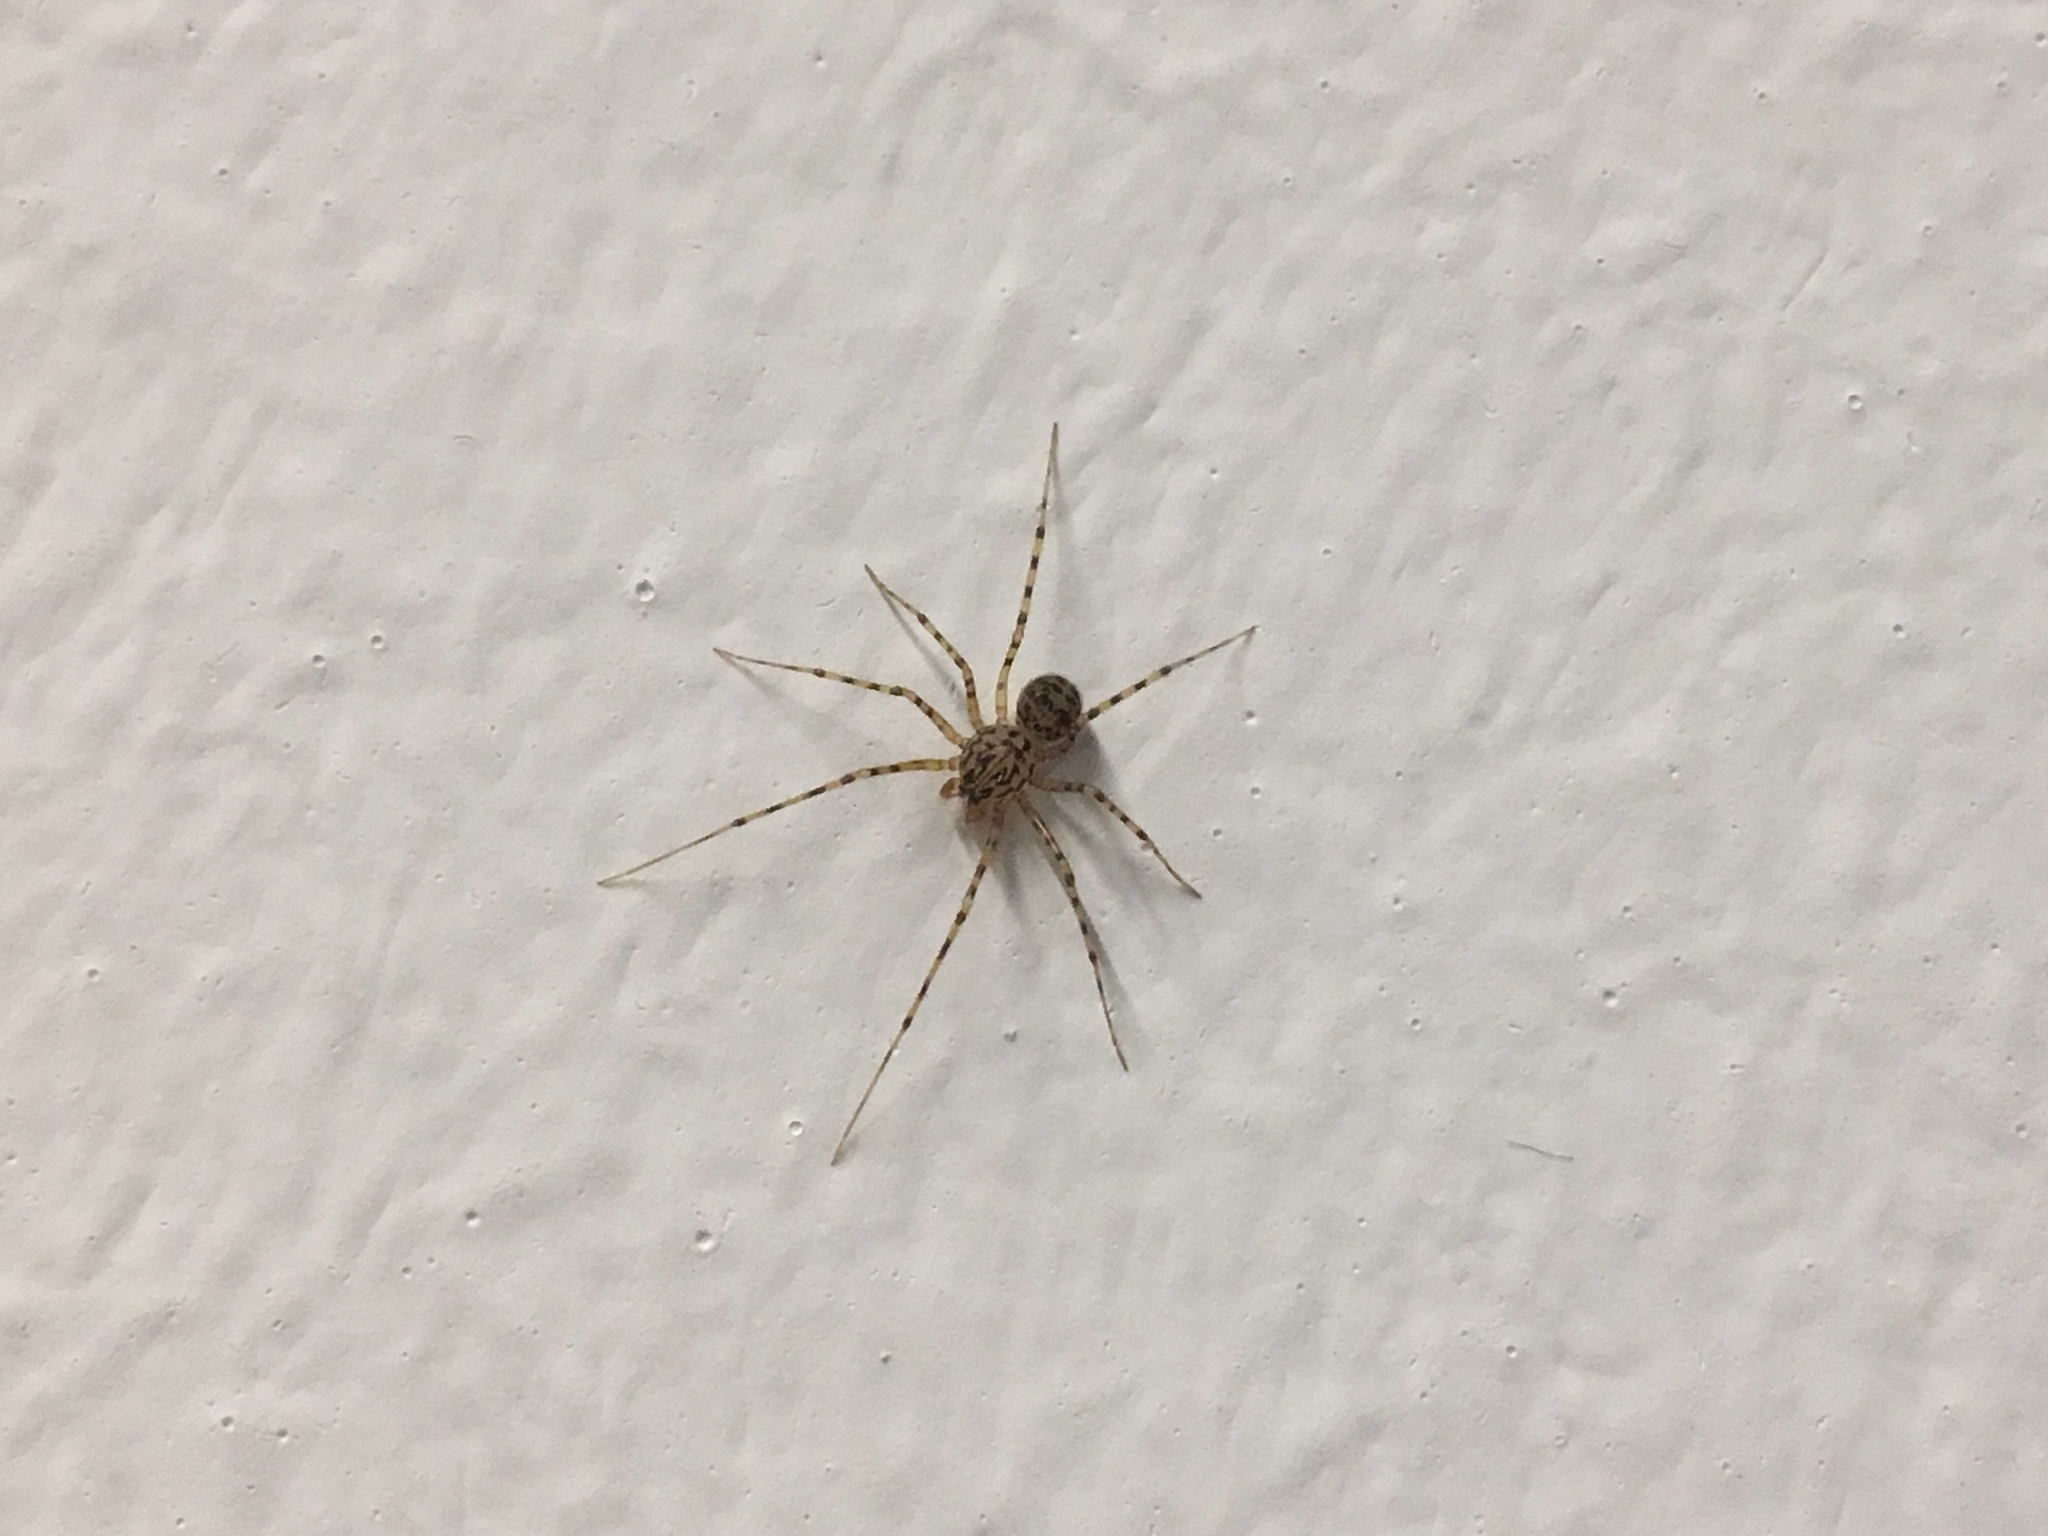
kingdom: Animalia
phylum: Arthropoda
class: Arachnida
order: Araneae
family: Scytodidae
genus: Scytodes
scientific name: Scytodes thoracica
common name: Spitting spider
